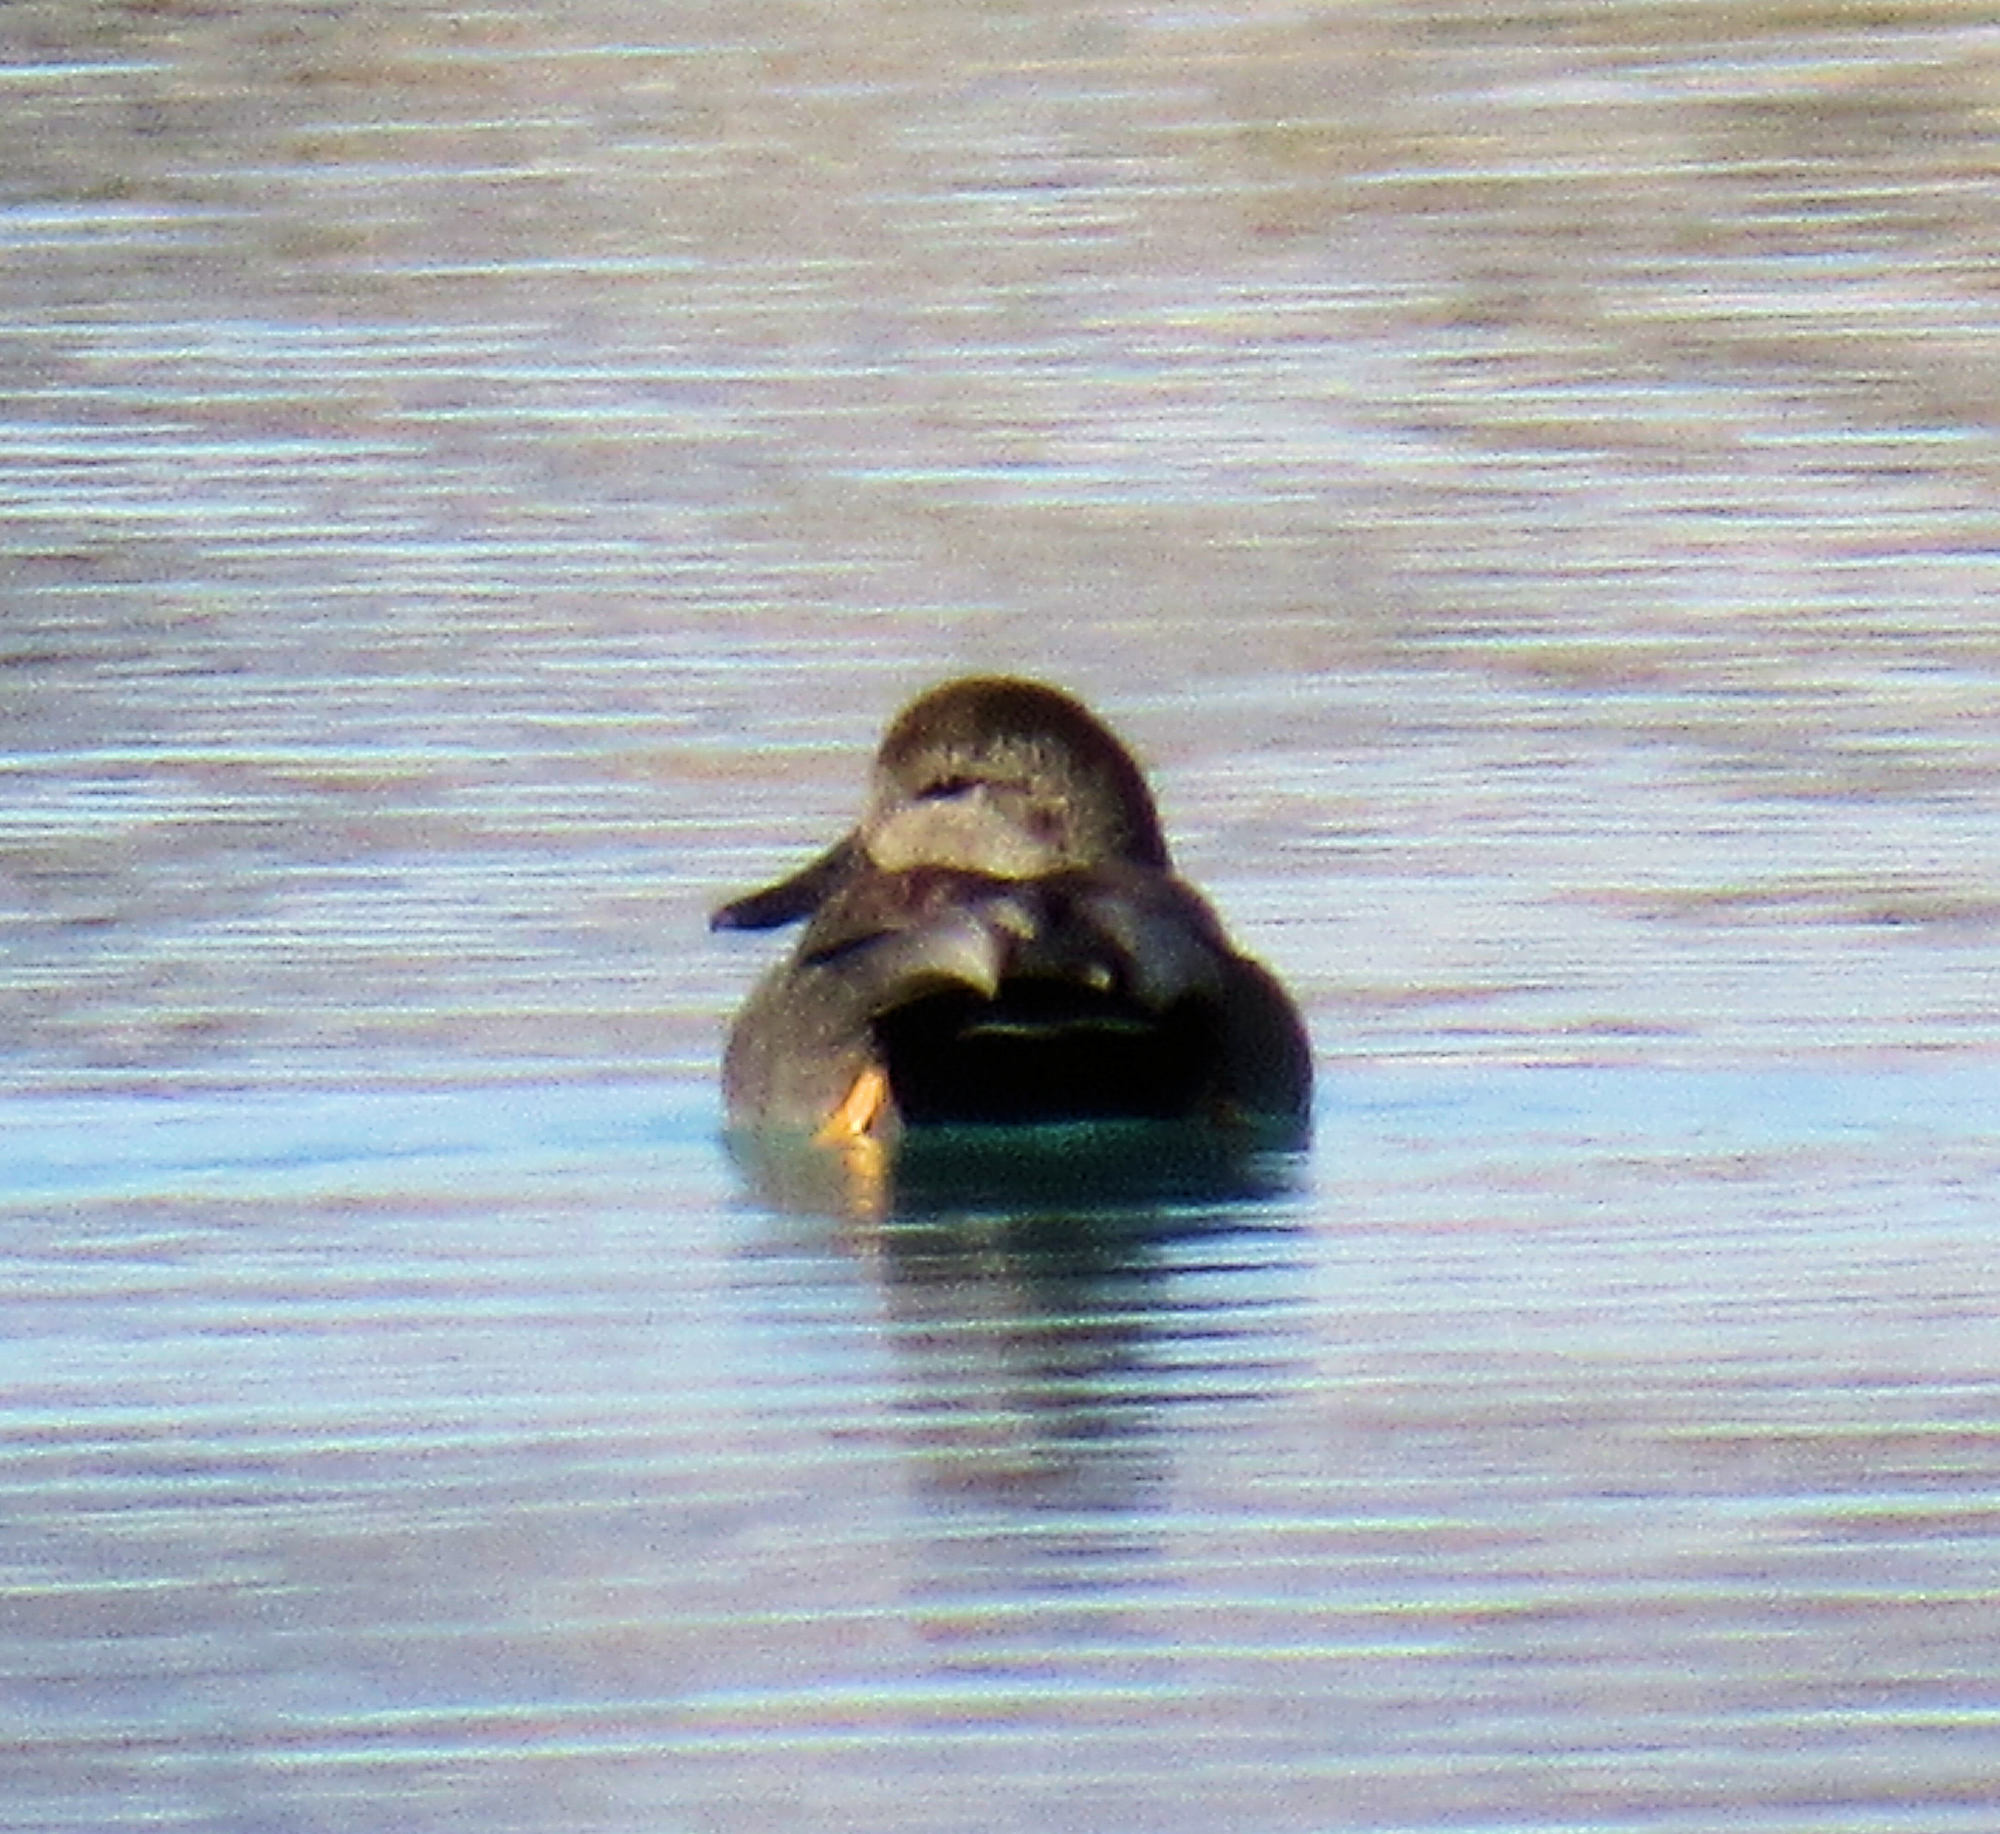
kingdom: Animalia
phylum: Chordata
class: Aves
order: Anseriformes
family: Anatidae
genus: Mareca
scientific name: Mareca strepera
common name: Gadwall
